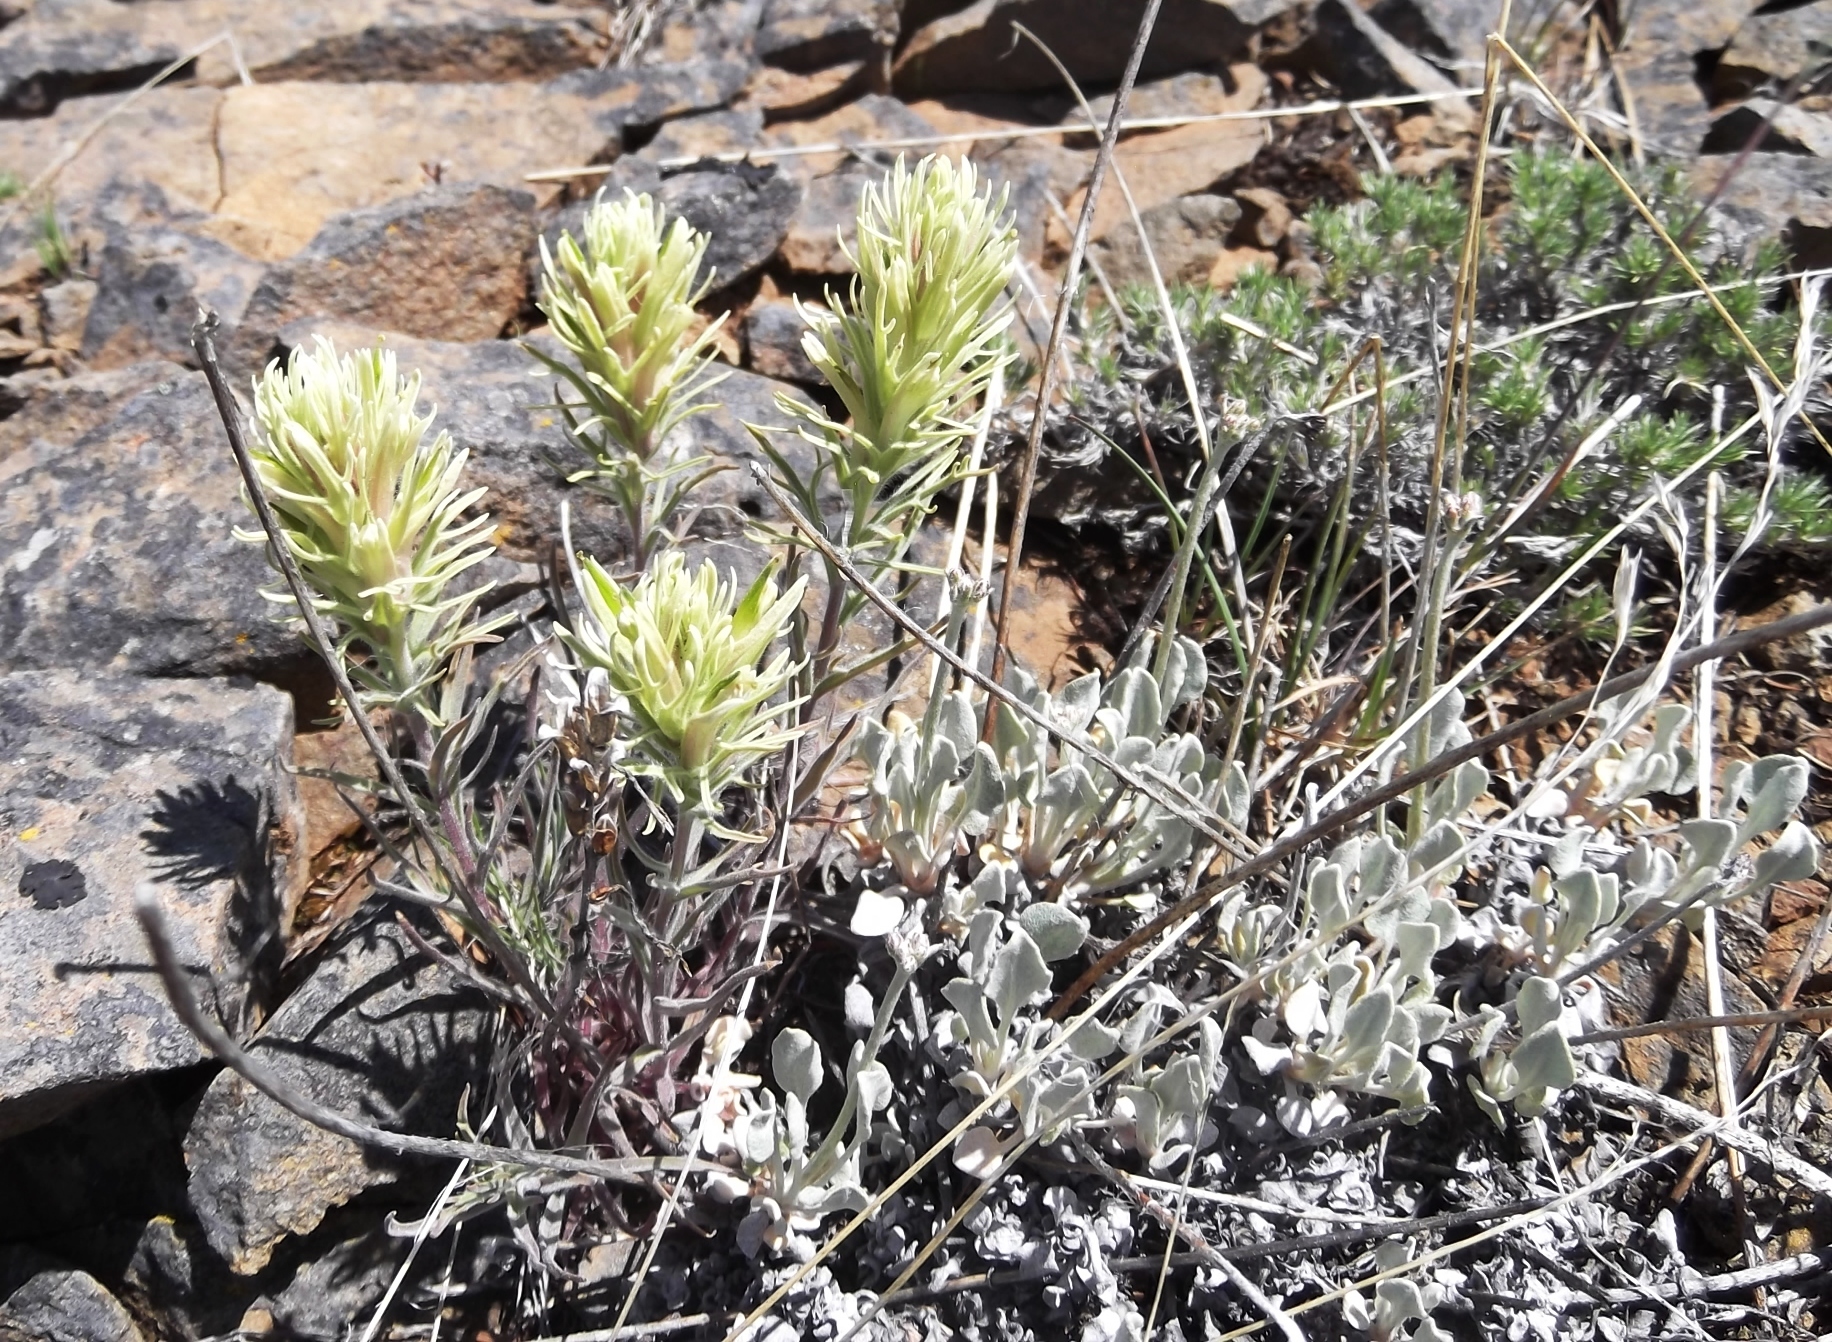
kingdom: Plantae
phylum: Tracheophyta
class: Magnoliopsida
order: Lamiales
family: Orobanchaceae
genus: Castilleja
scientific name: Castilleja thompsonii
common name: Thompson's paintbrush
